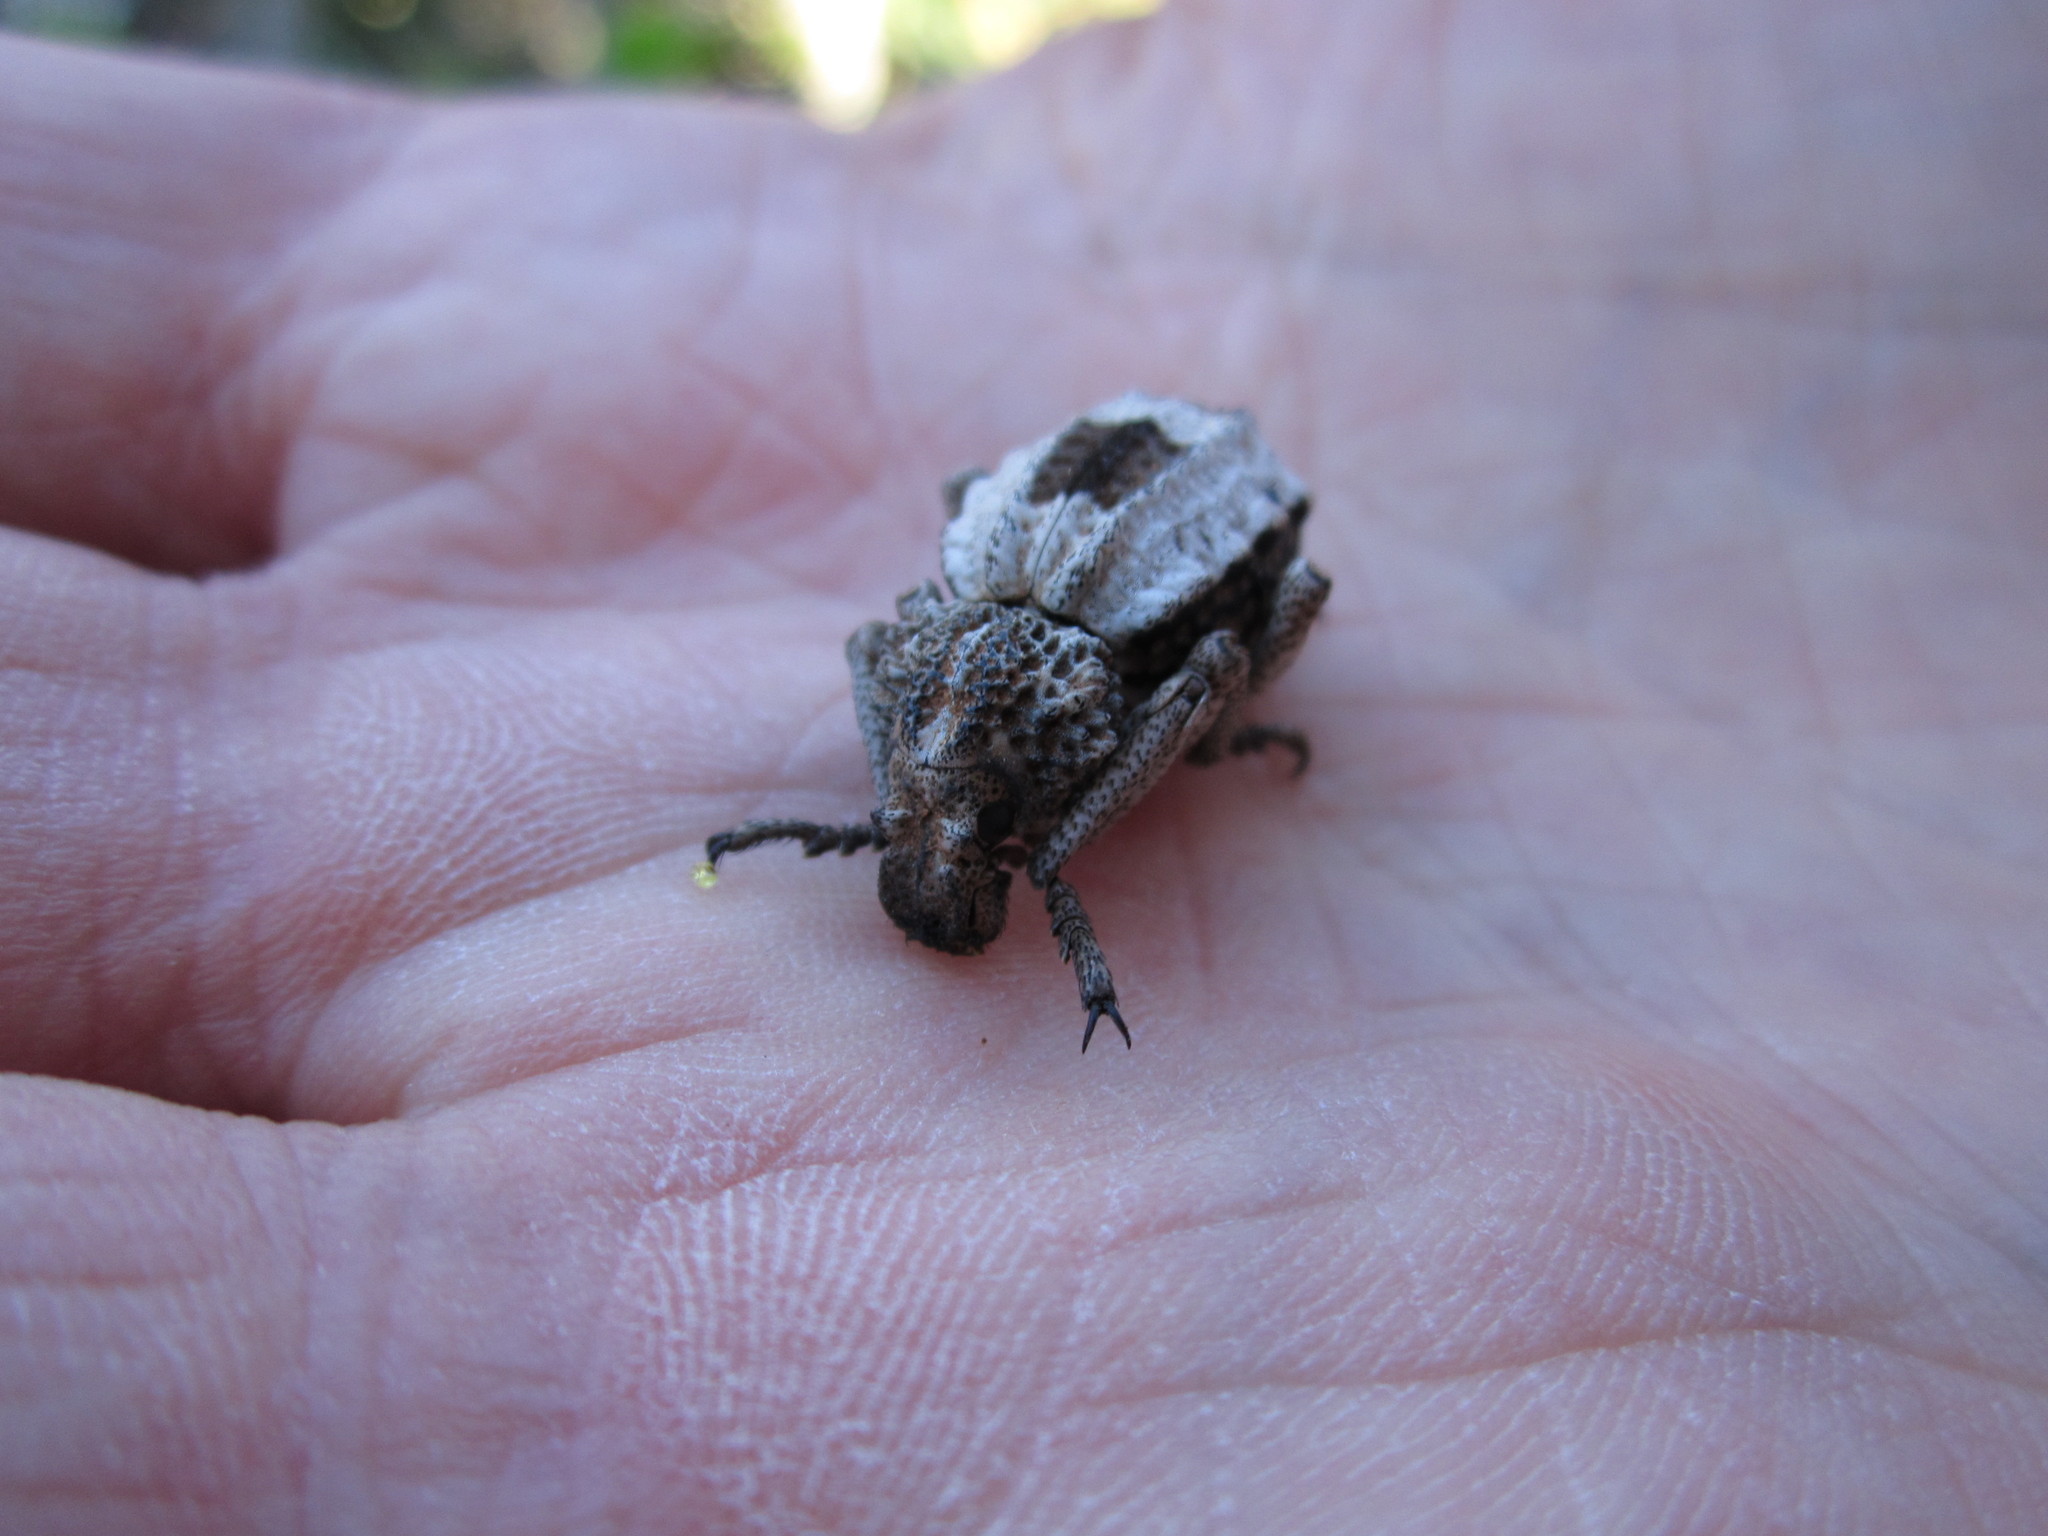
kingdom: Animalia
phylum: Arthropoda
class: Insecta
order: Coleoptera
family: Brachyceridae
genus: Brachycerus
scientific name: Brachycerus tauriculus
